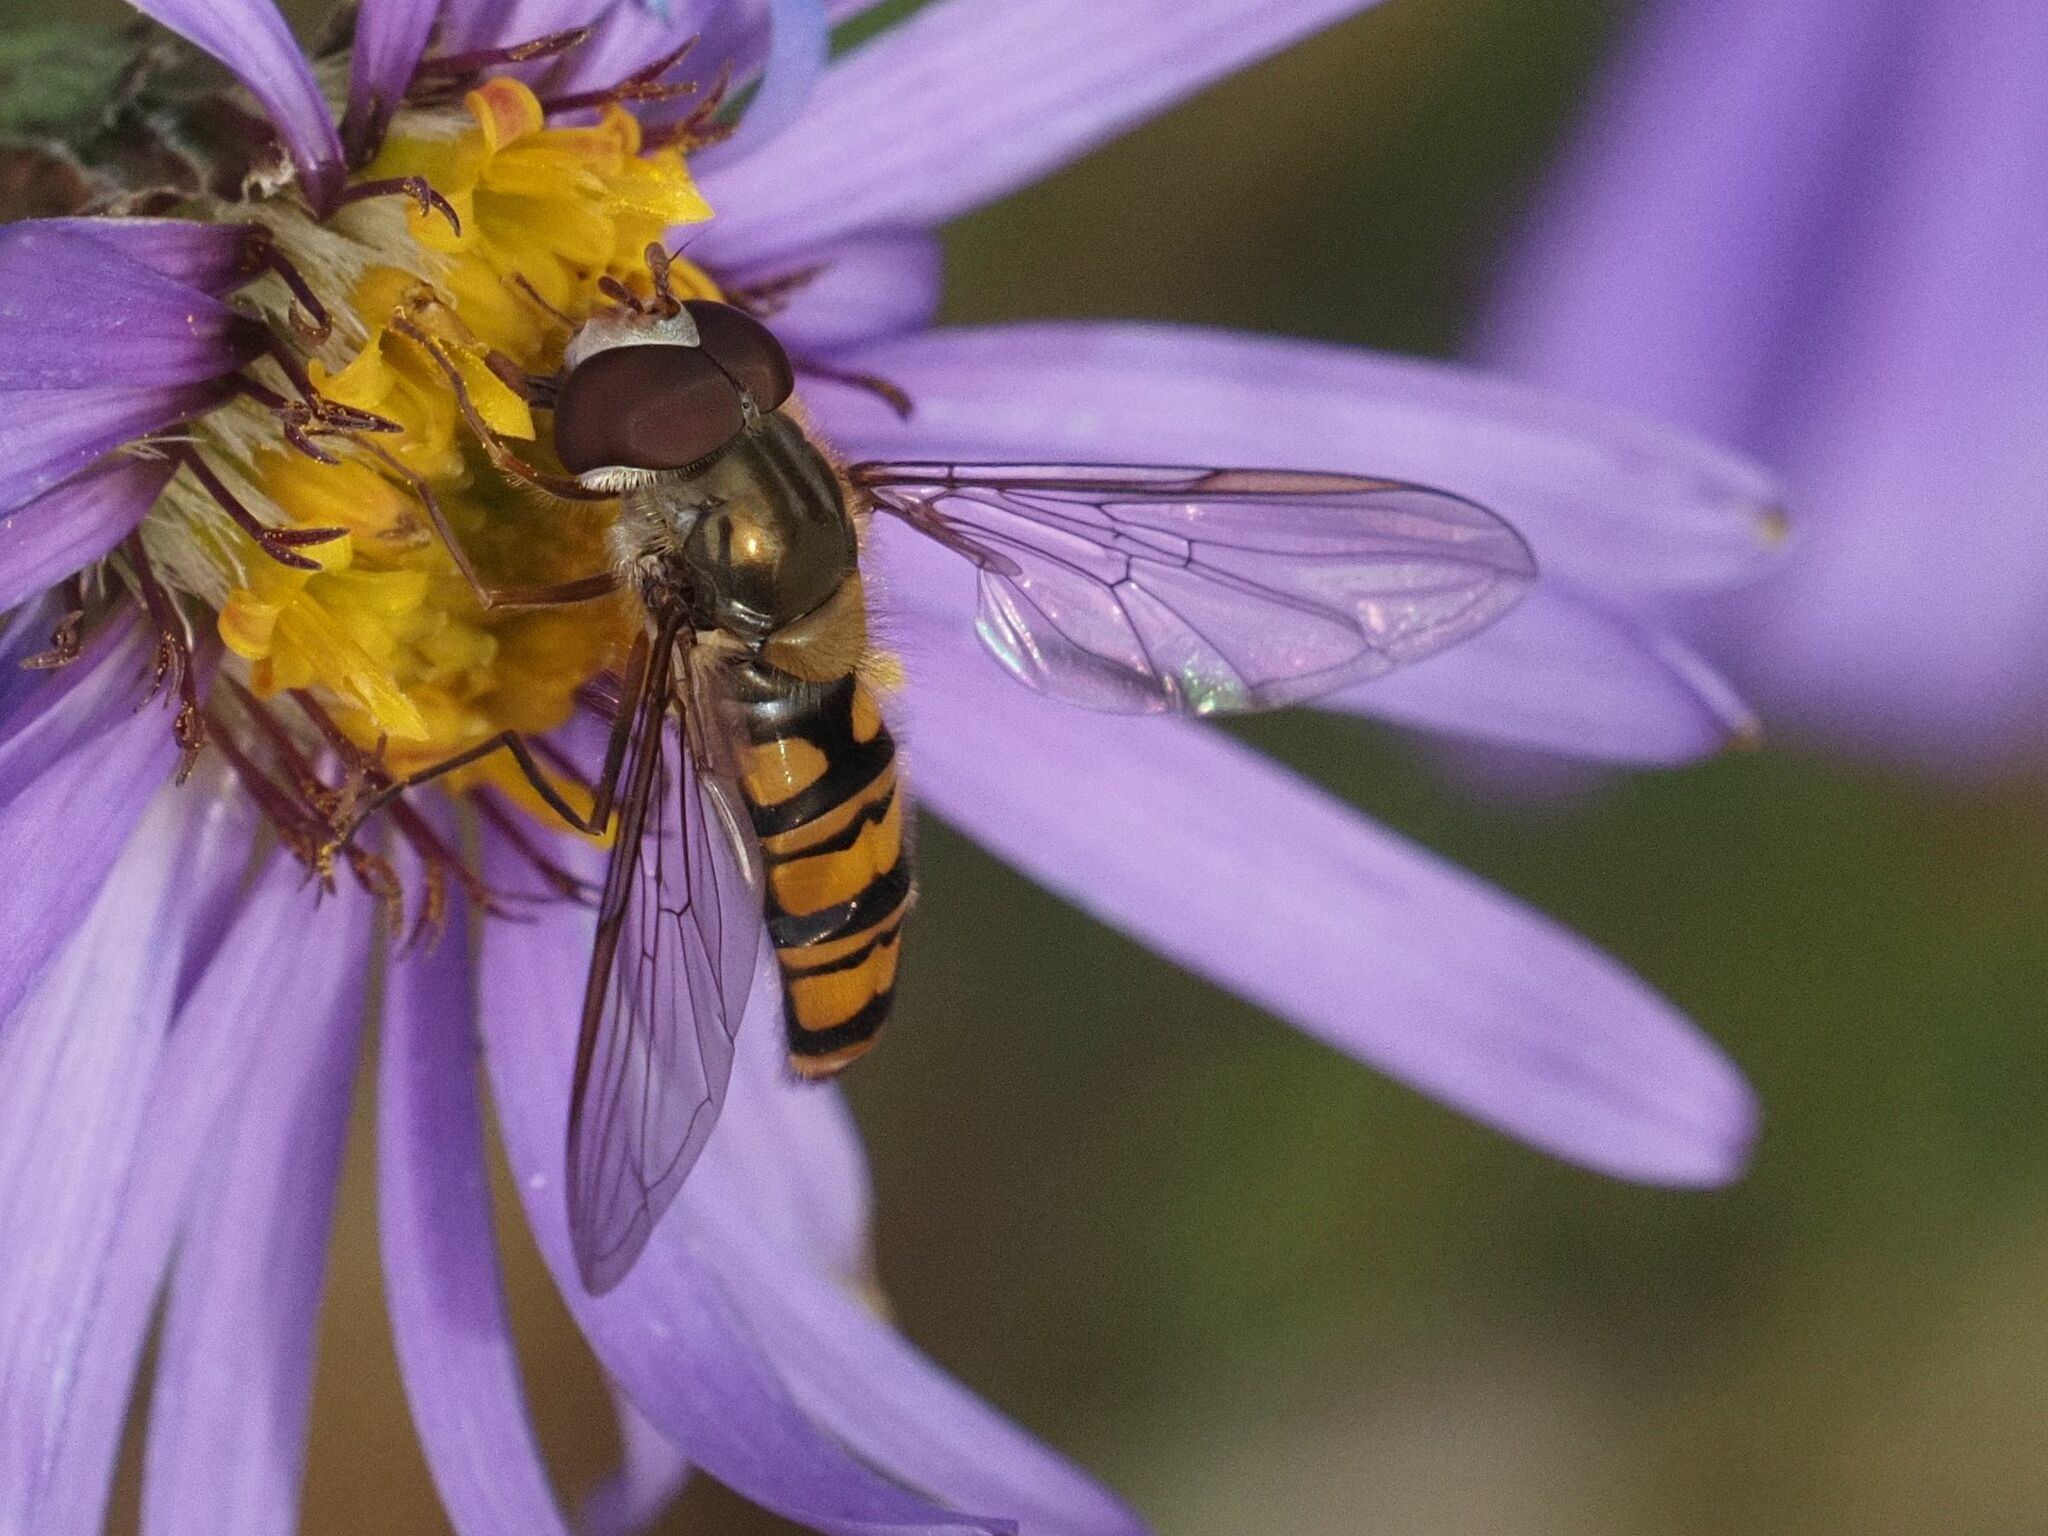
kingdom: Animalia
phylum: Arthropoda
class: Insecta
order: Diptera
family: Syrphidae
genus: Episyrphus
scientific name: Episyrphus balteatus
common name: Marmalade hoverfly
